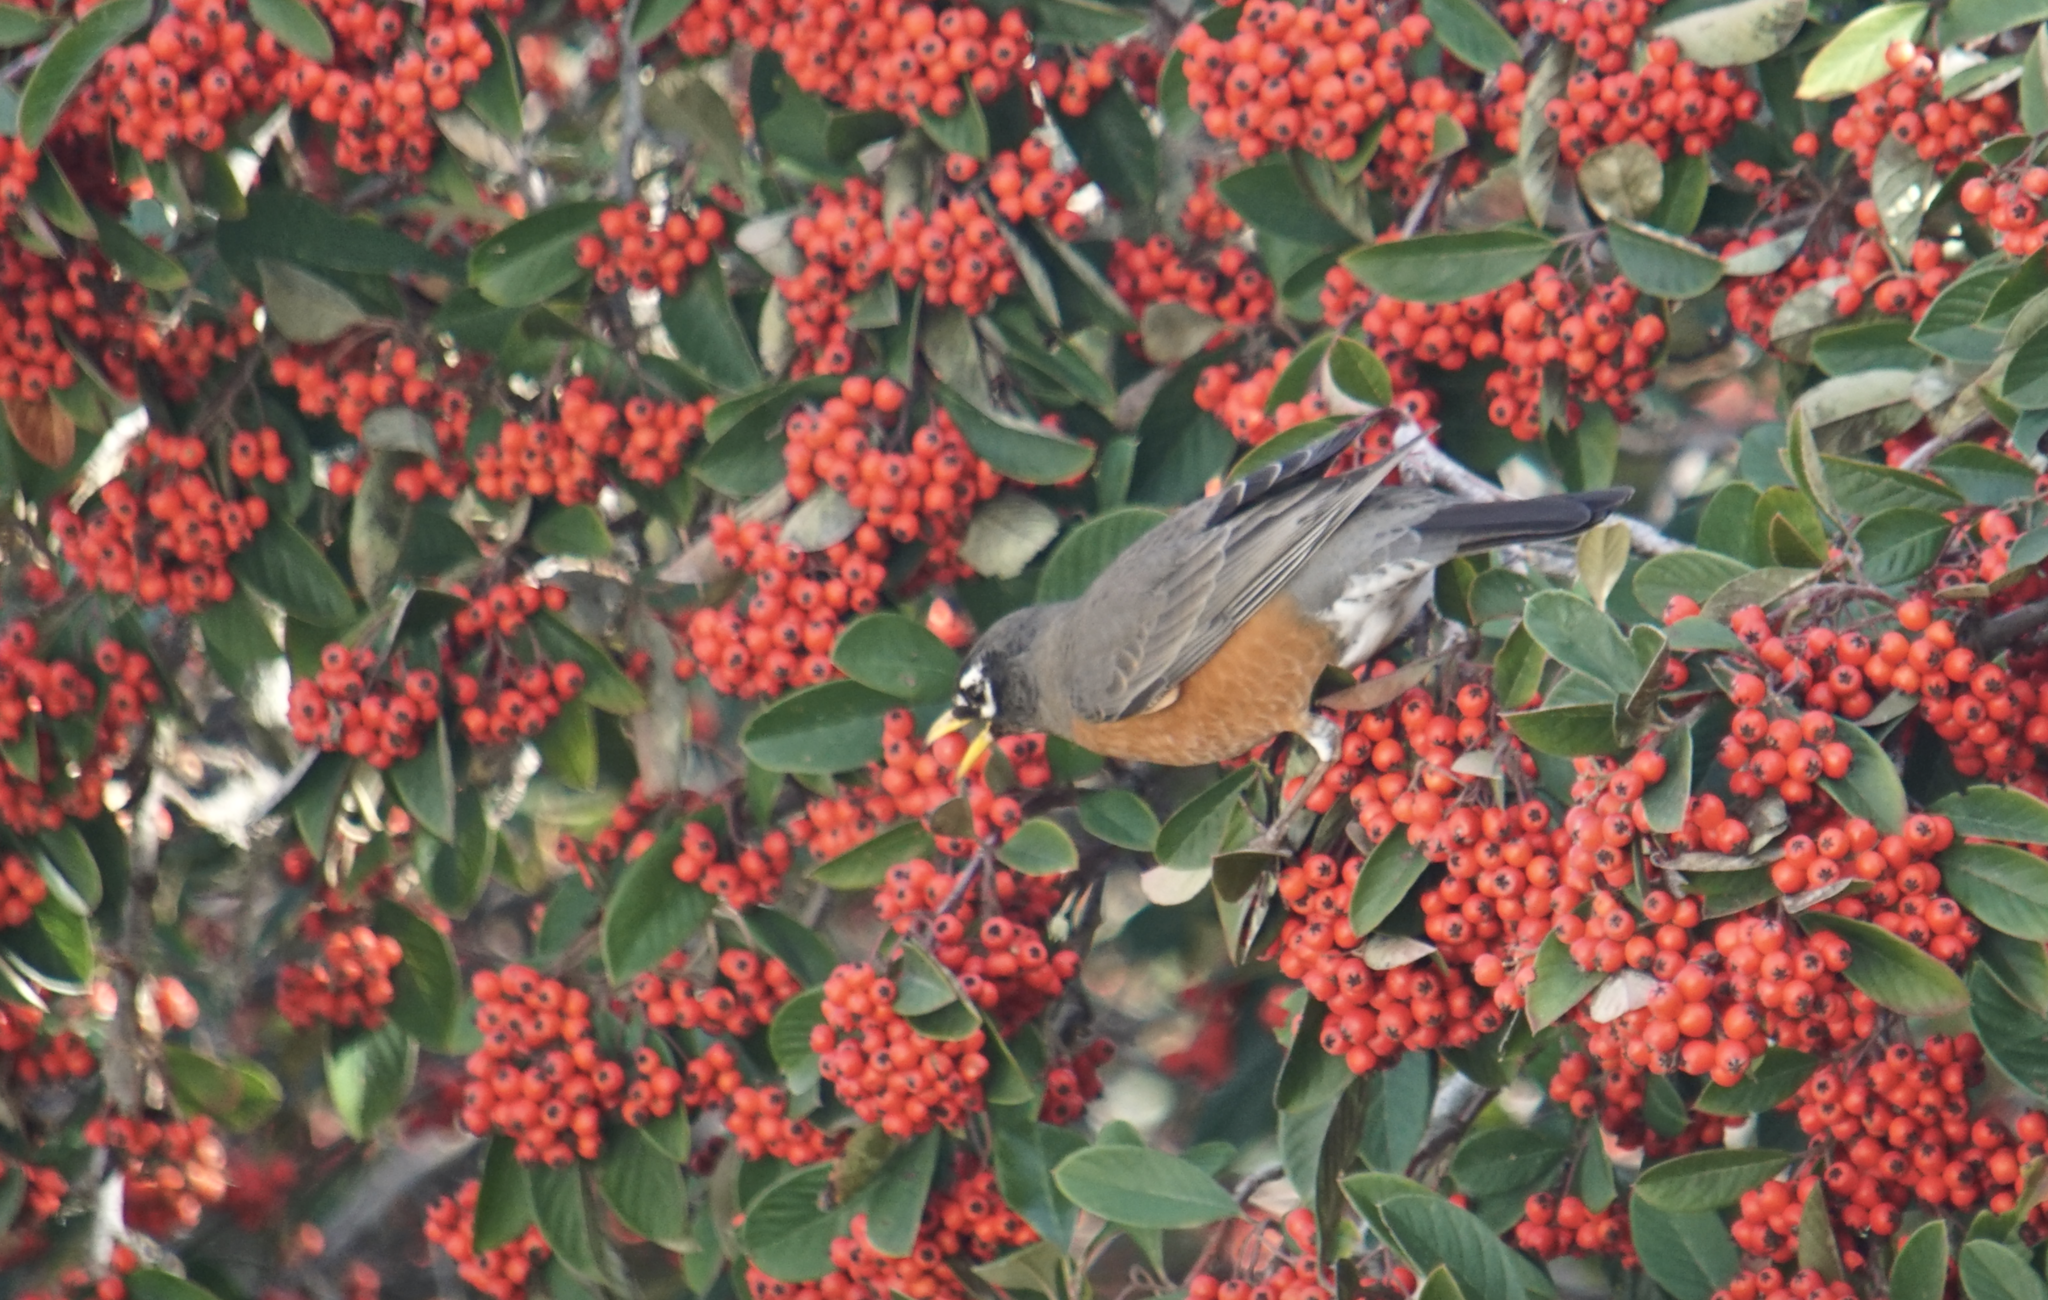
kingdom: Animalia
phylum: Chordata
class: Aves
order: Passeriformes
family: Turdidae
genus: Turdus
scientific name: Turdus migratorius
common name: American robin
